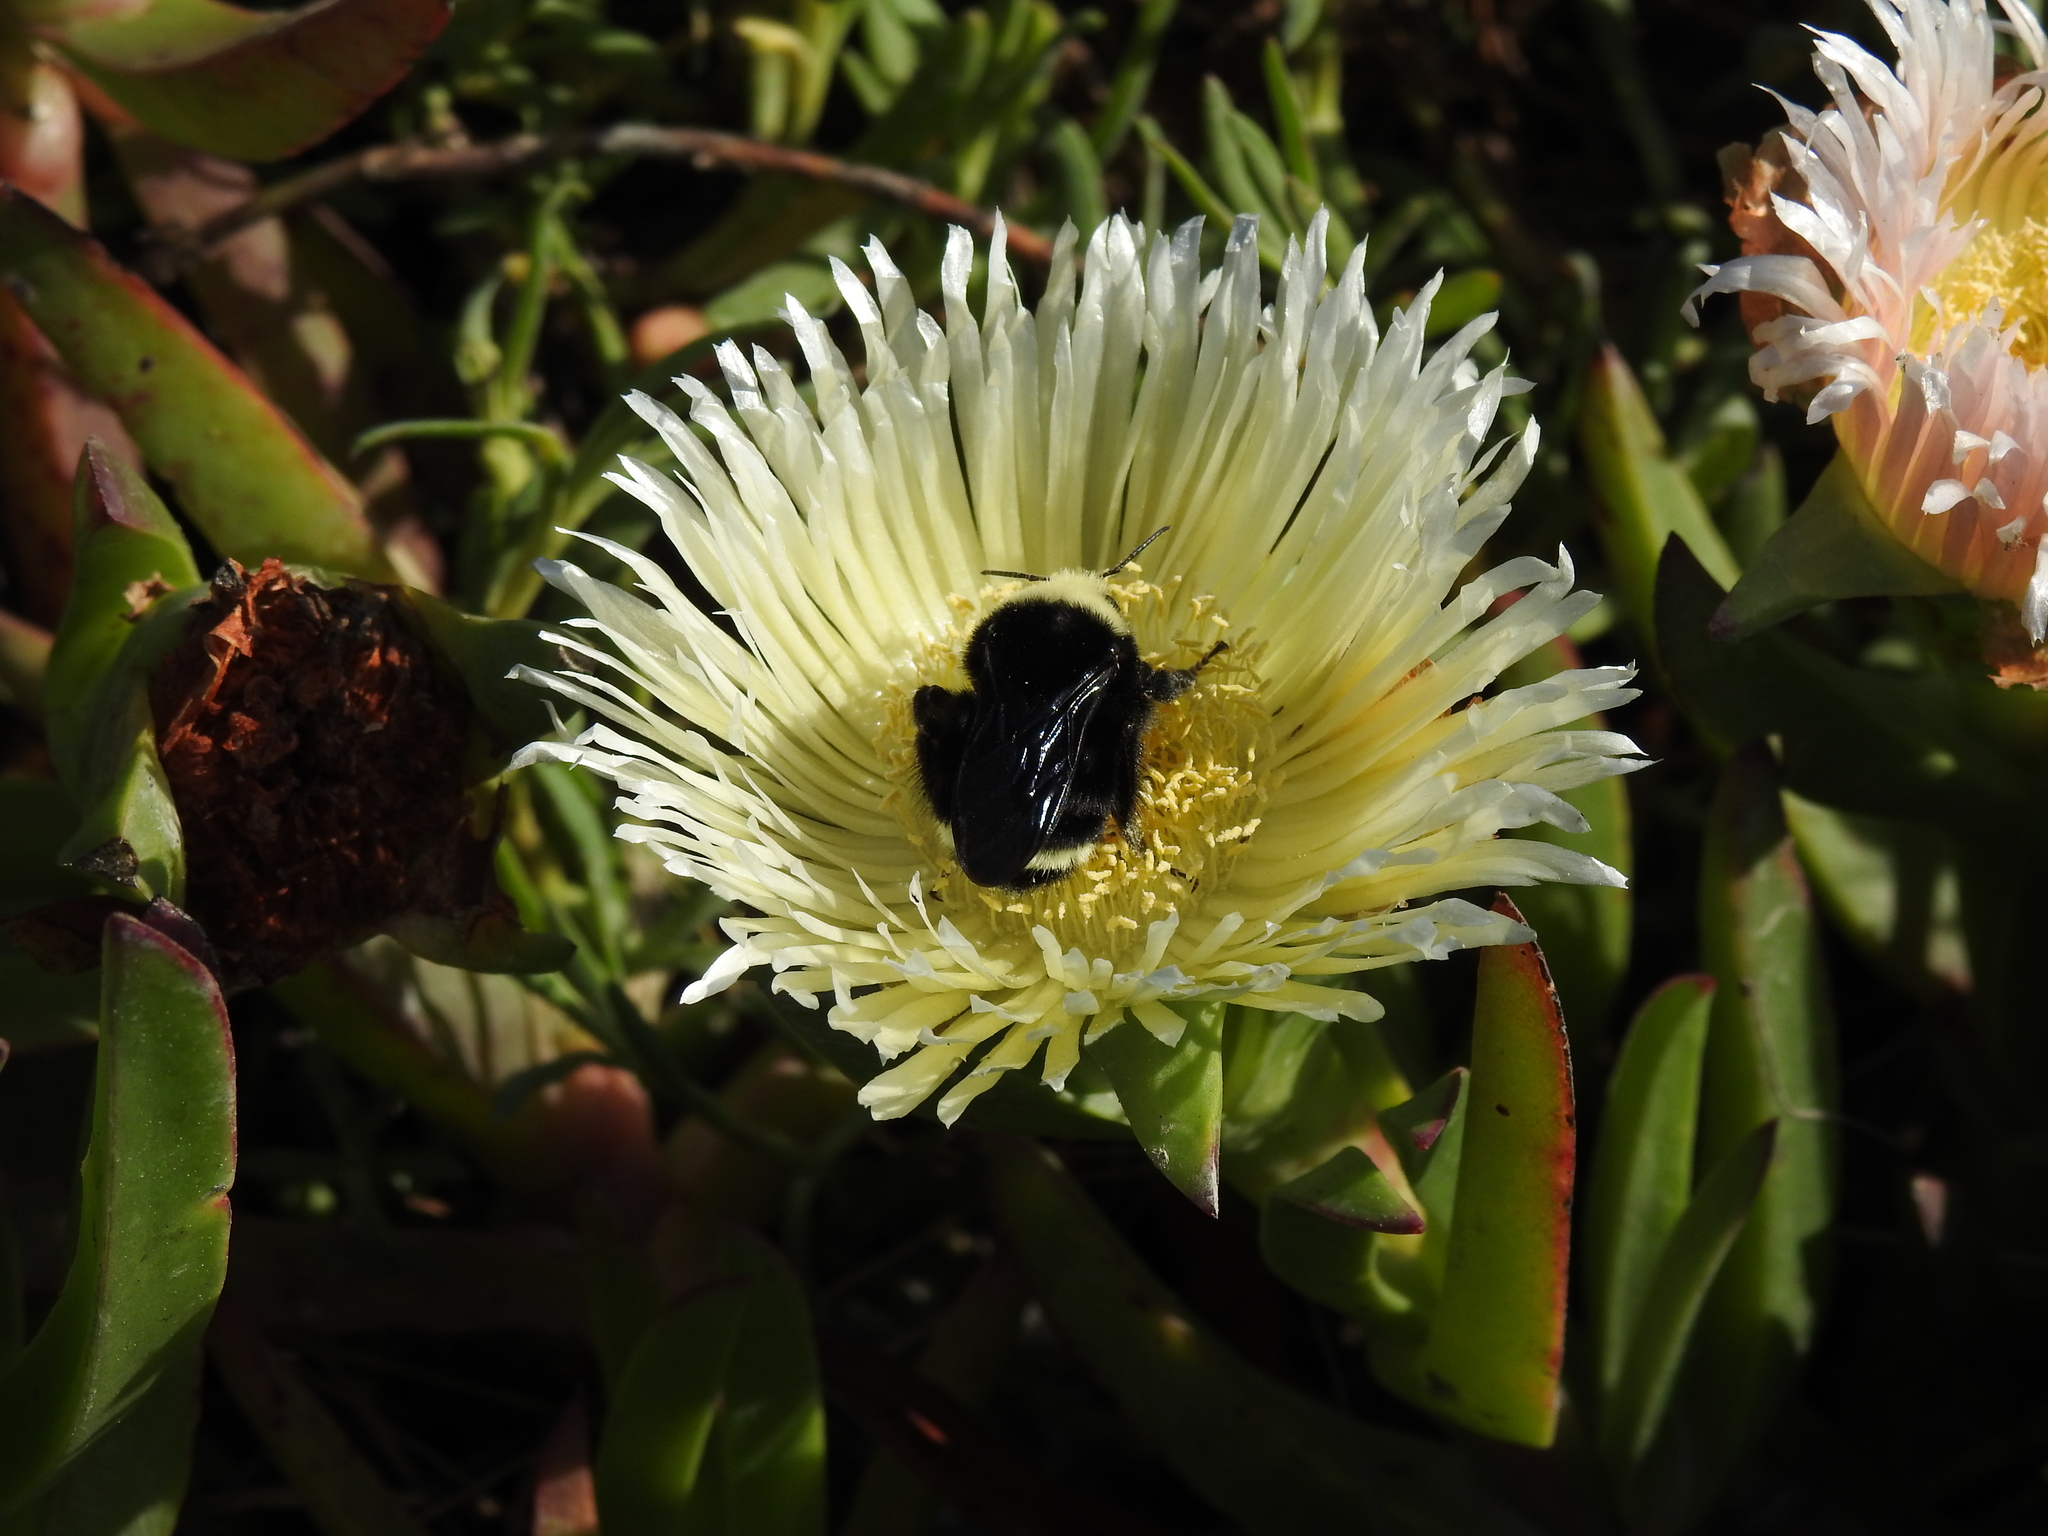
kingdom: Animalia
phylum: Arthropoda
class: Insecta
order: Hymenoptera
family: Apidae
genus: Bombus
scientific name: Bombus vosnesenskii
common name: Vosnesensky bumble bee
